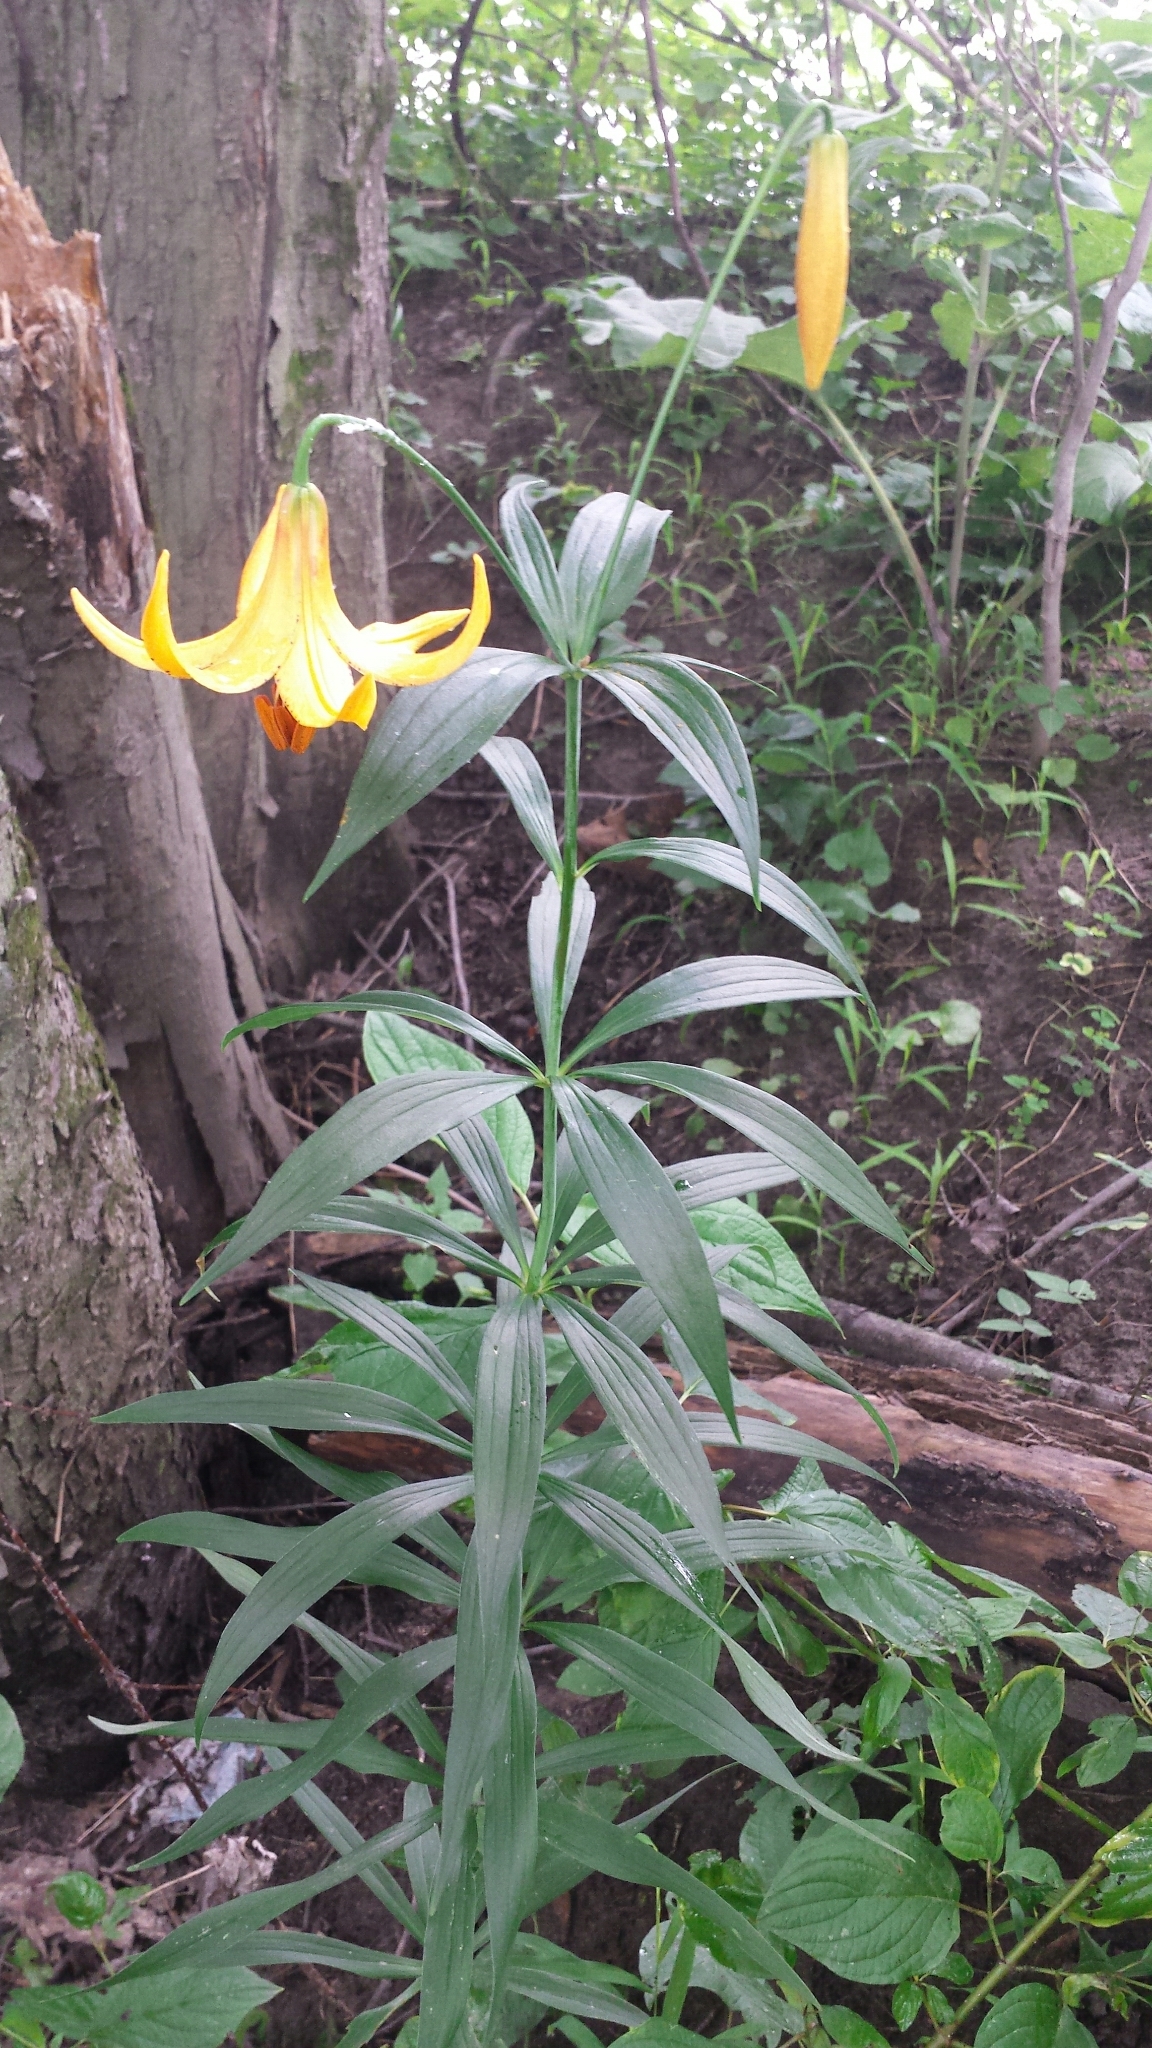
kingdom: Plantae
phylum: Tracheophyta
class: Liliopsida
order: Liliales
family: Liliaceae
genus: Lilium
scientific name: Lilium canadense
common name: Canada lily
